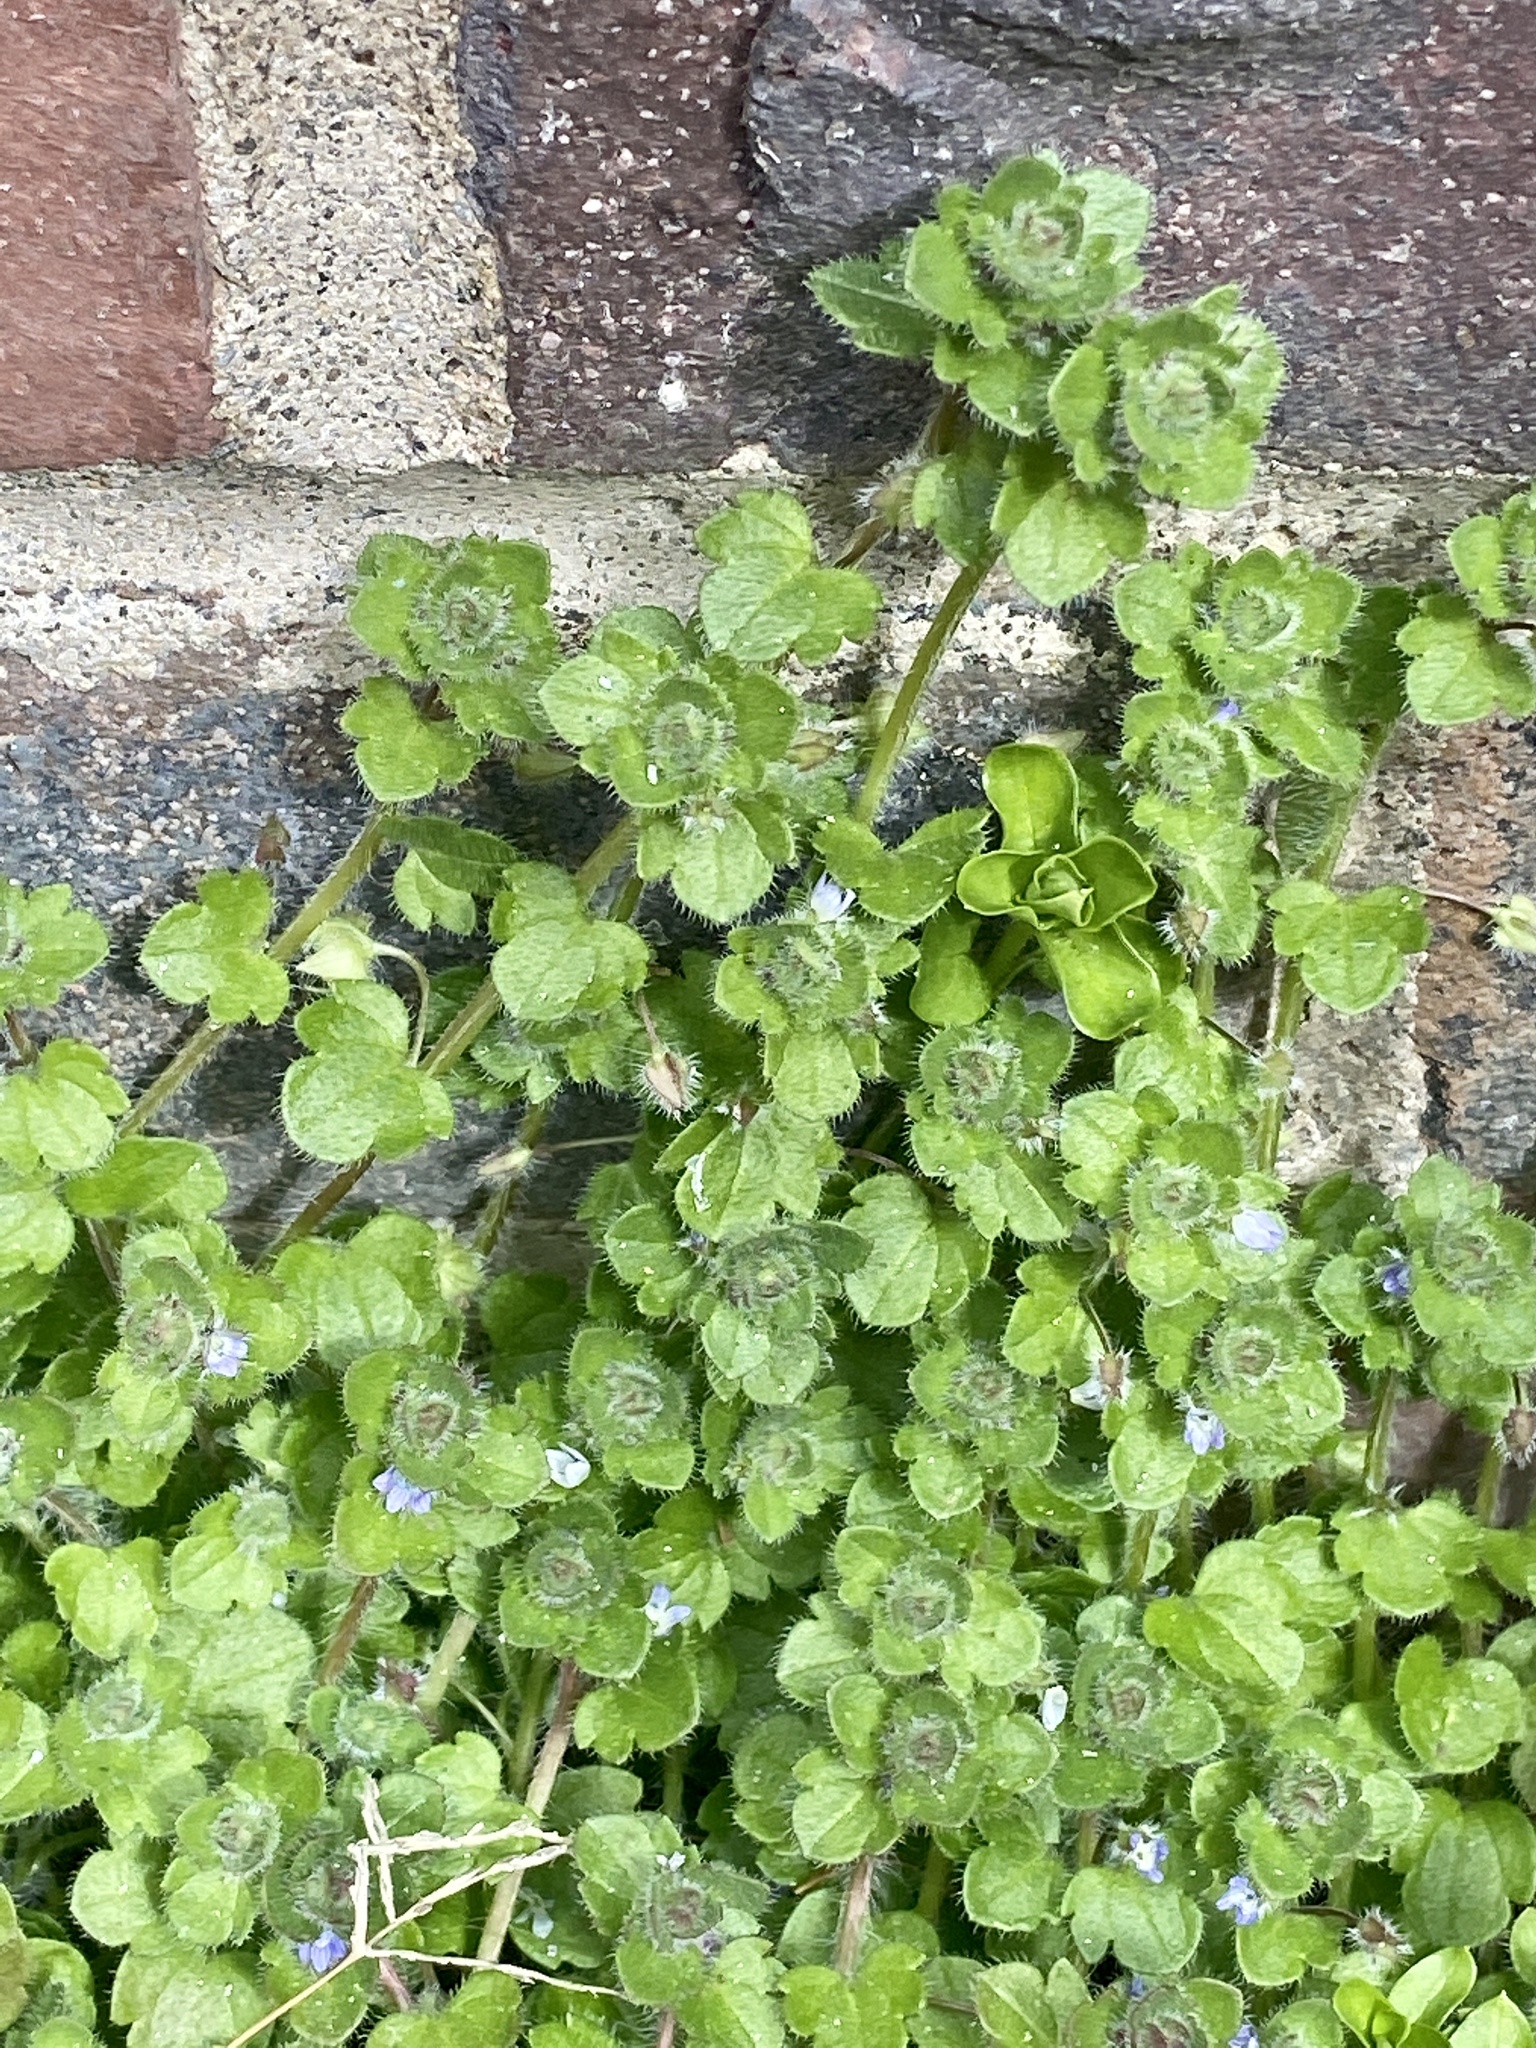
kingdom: Plantae
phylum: Tracheophyta
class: Magnoliopsida
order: Lamiales
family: Plantaginaceae
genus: Veronica
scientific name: Veronica hederifolia
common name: Ivy-leaved speedwell
